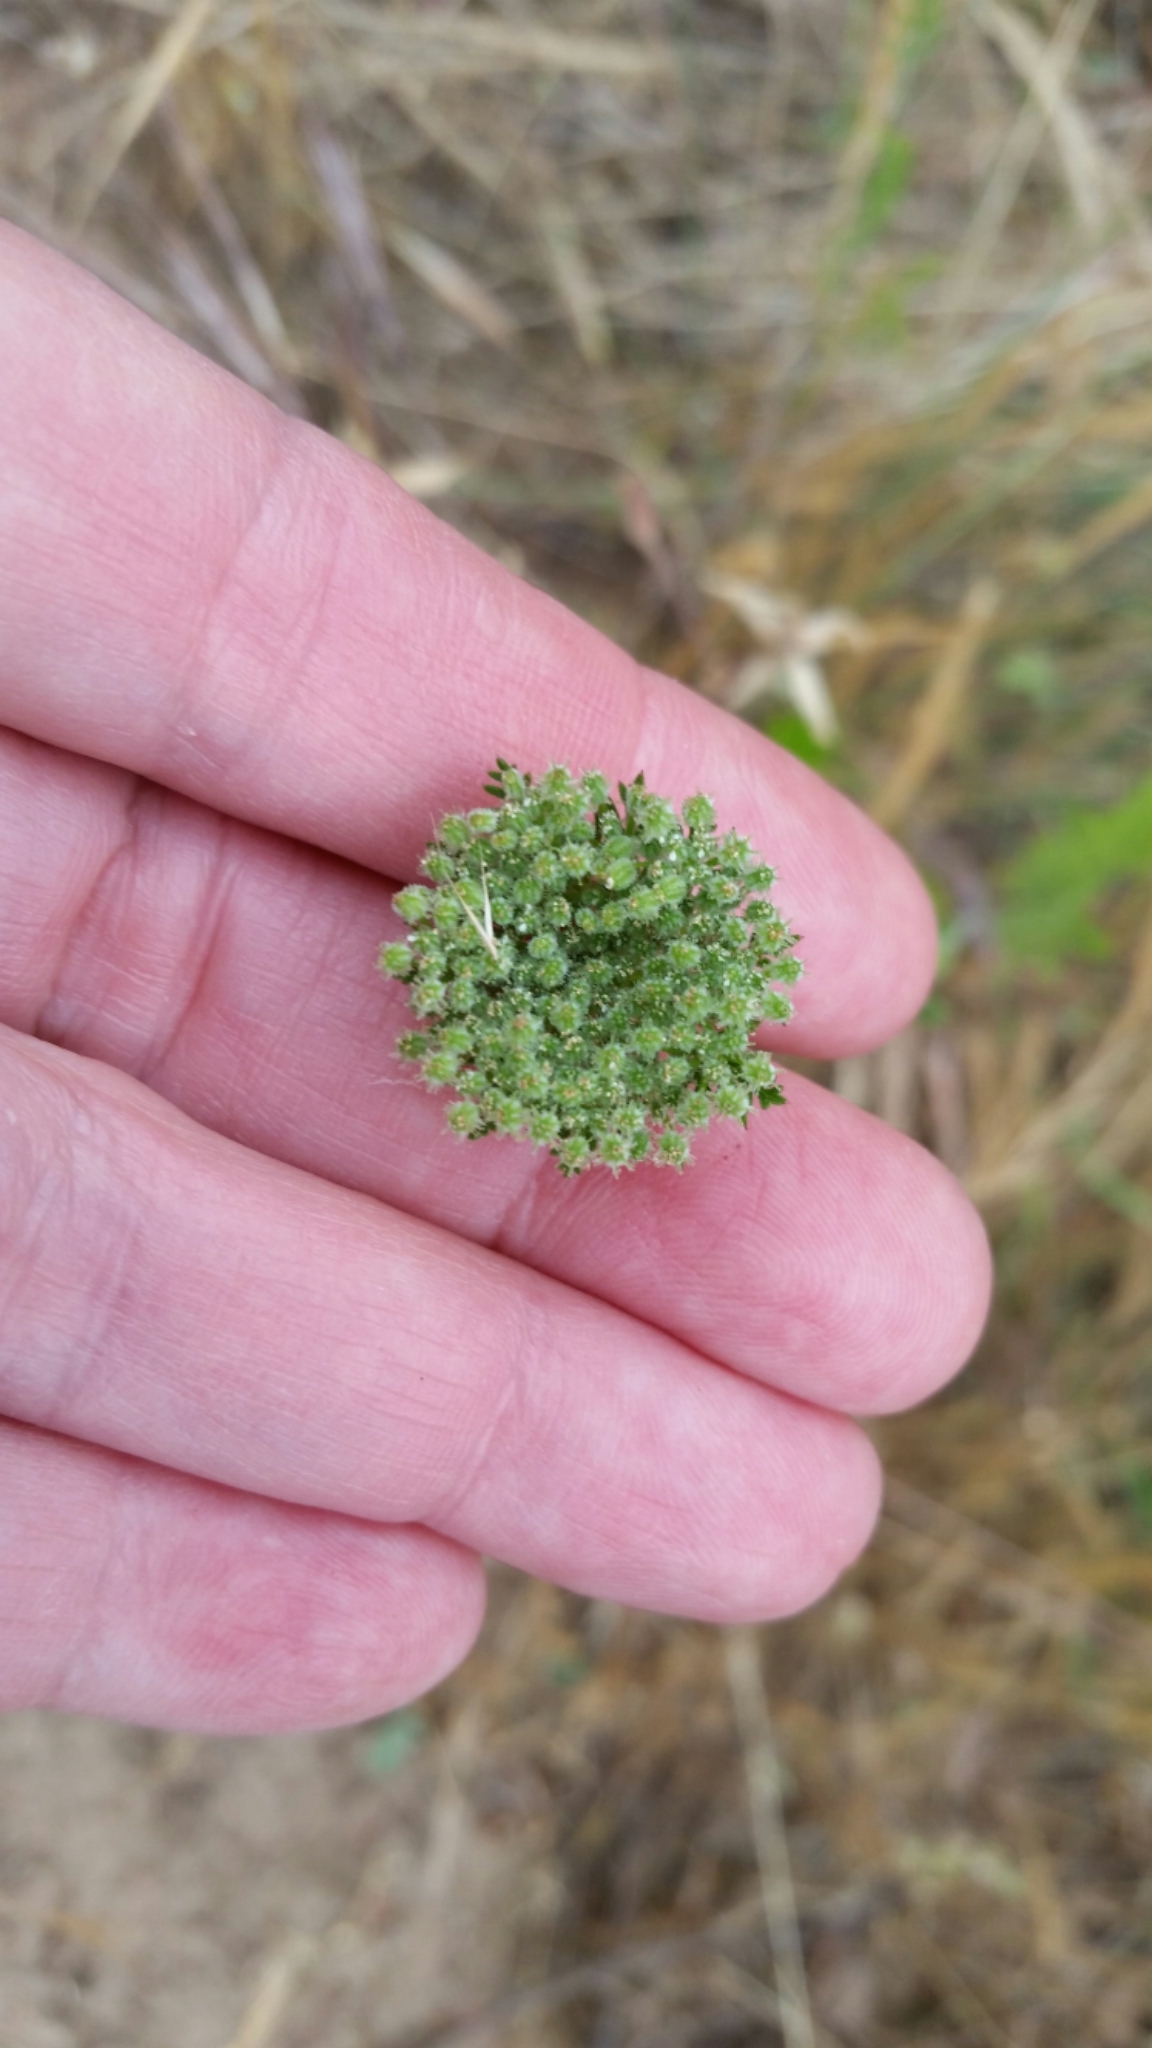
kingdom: Plantae
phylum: Tracheophyta
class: Magnoliopsida
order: Apiales
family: Apiaceae
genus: Daucus
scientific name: Daucus pusillus
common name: Southwest wild carrot
